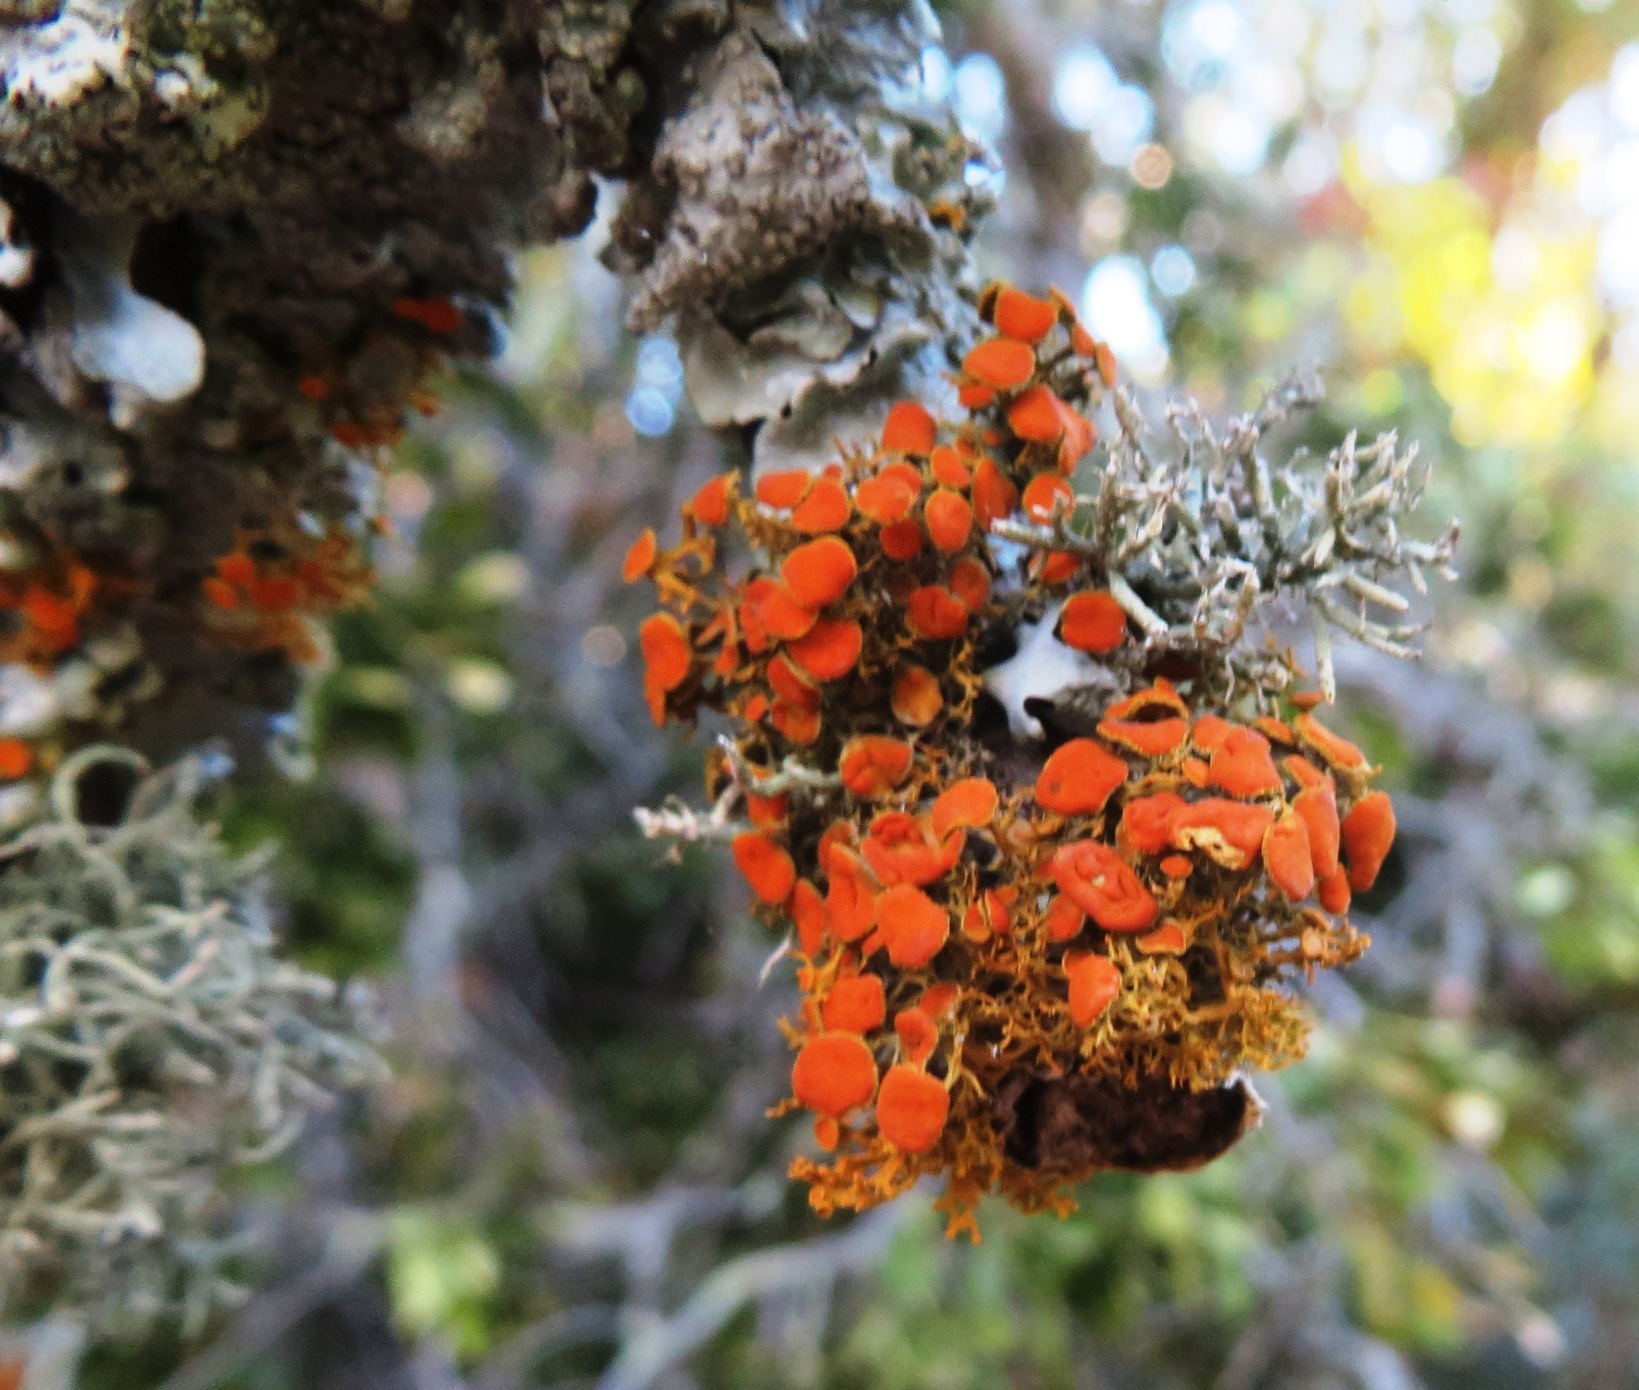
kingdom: Fungi
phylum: Ascomycota
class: Lecanoromycetes
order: Teloschistales
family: Teloschistaceae
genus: Teloschistes
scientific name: Teloschistes exilis
